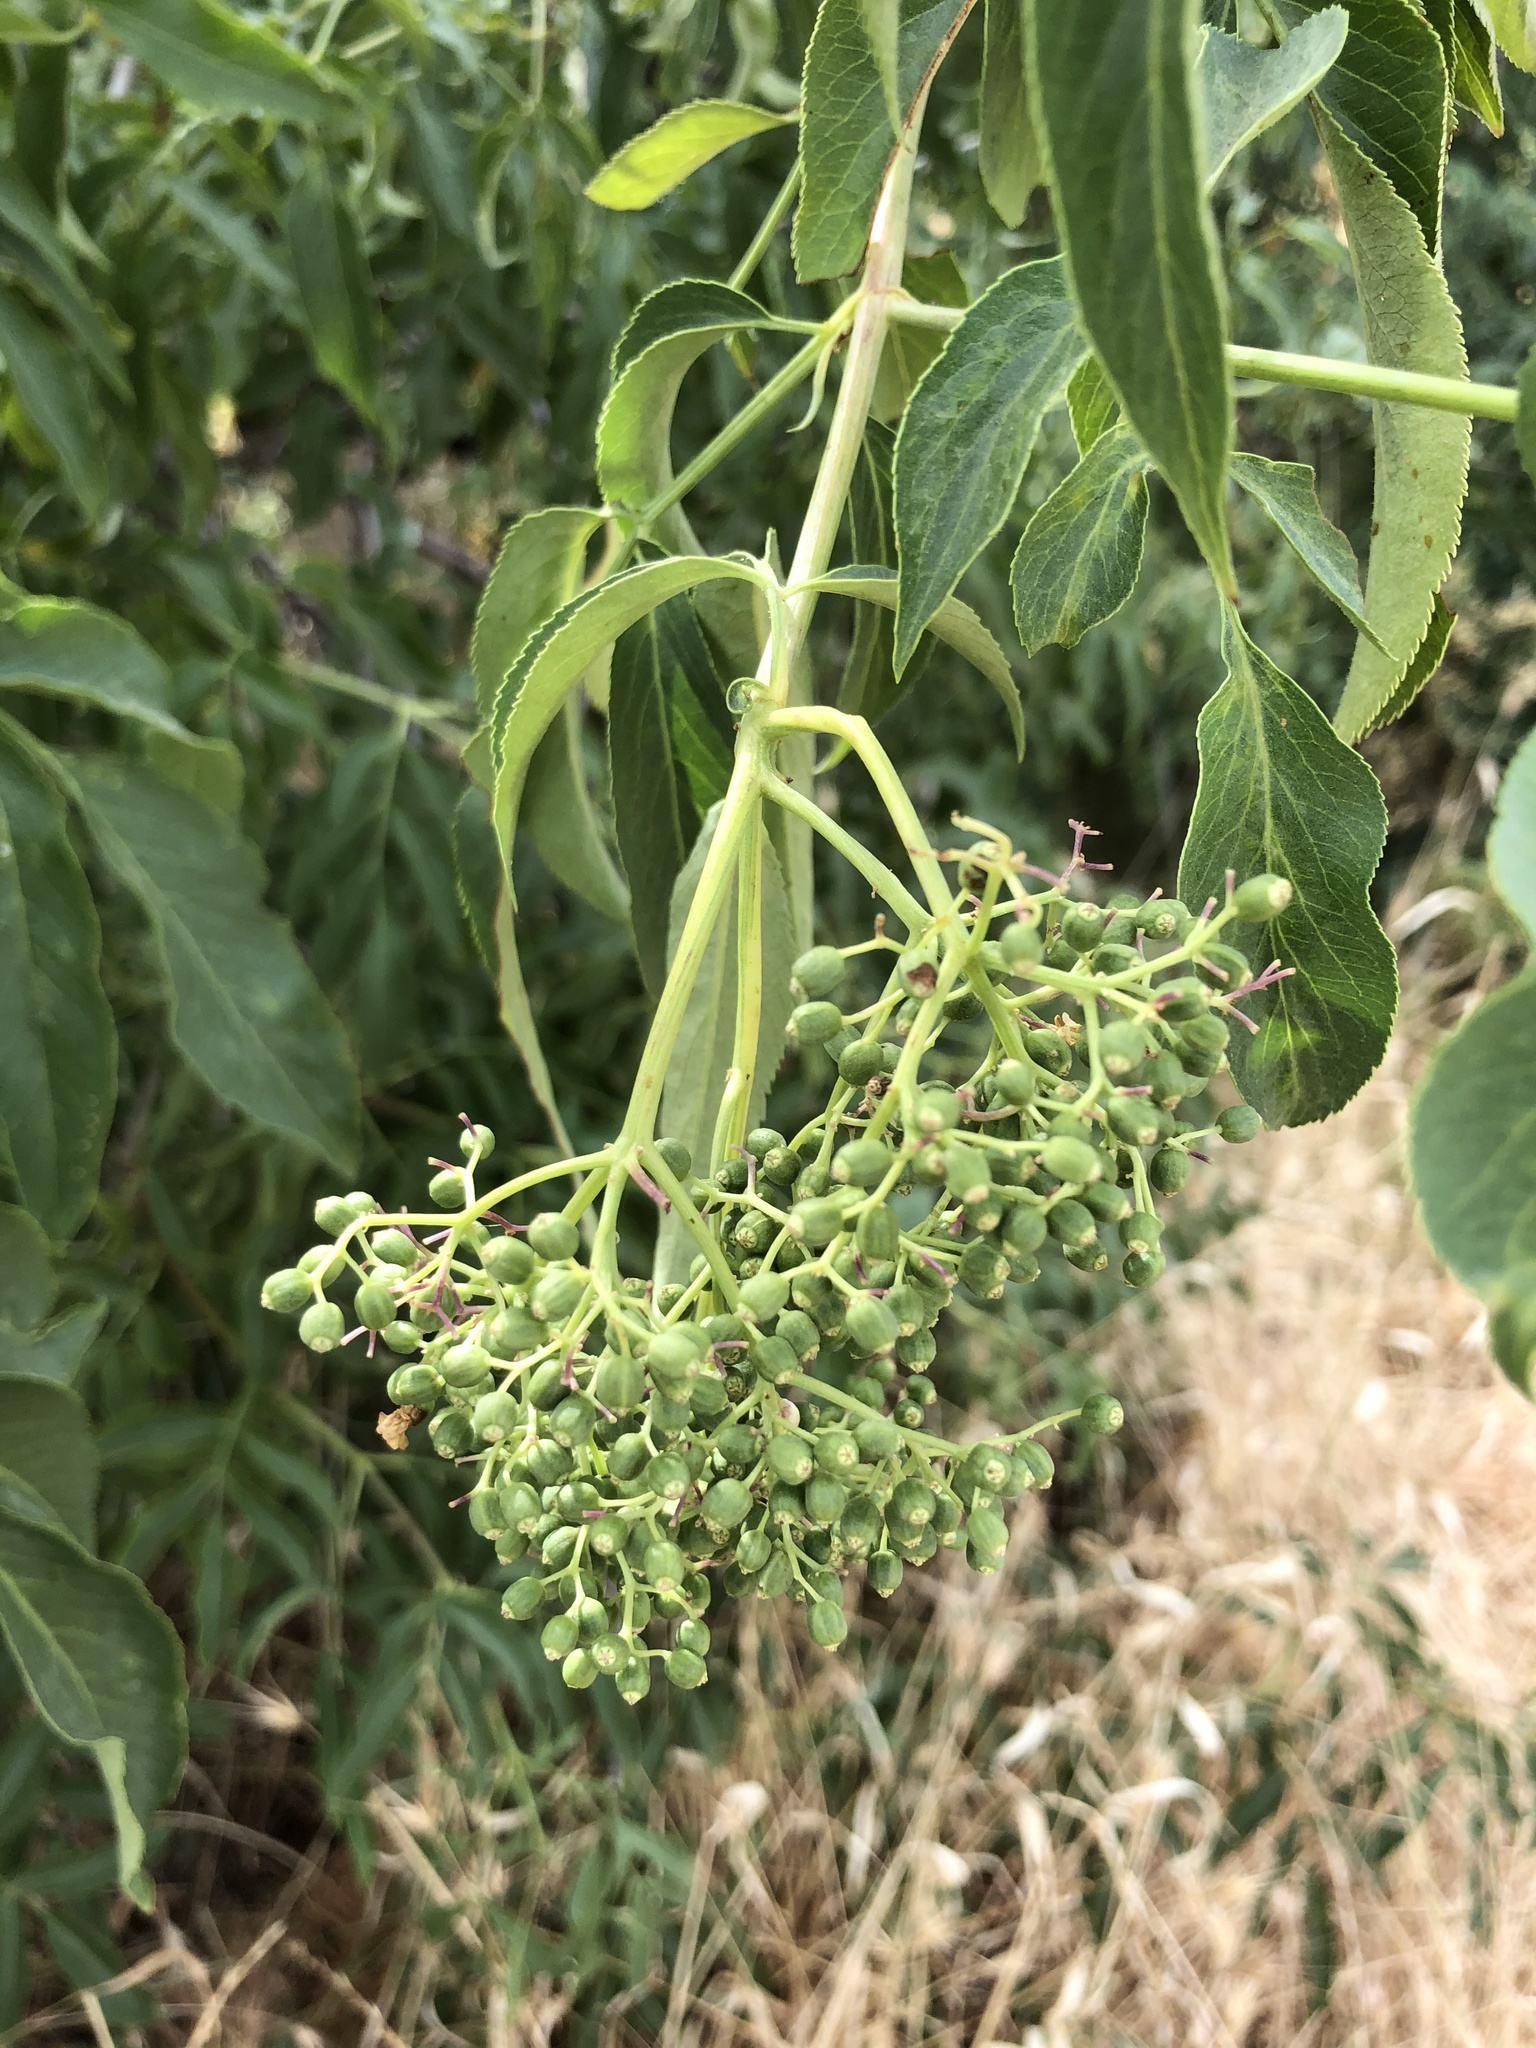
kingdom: Plantae
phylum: Tracheophyta
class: Magnoliopsida
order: Dipsacales
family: Viburnaceae
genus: Sambucus
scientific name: Sambucus cerulea
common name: Blue elder
